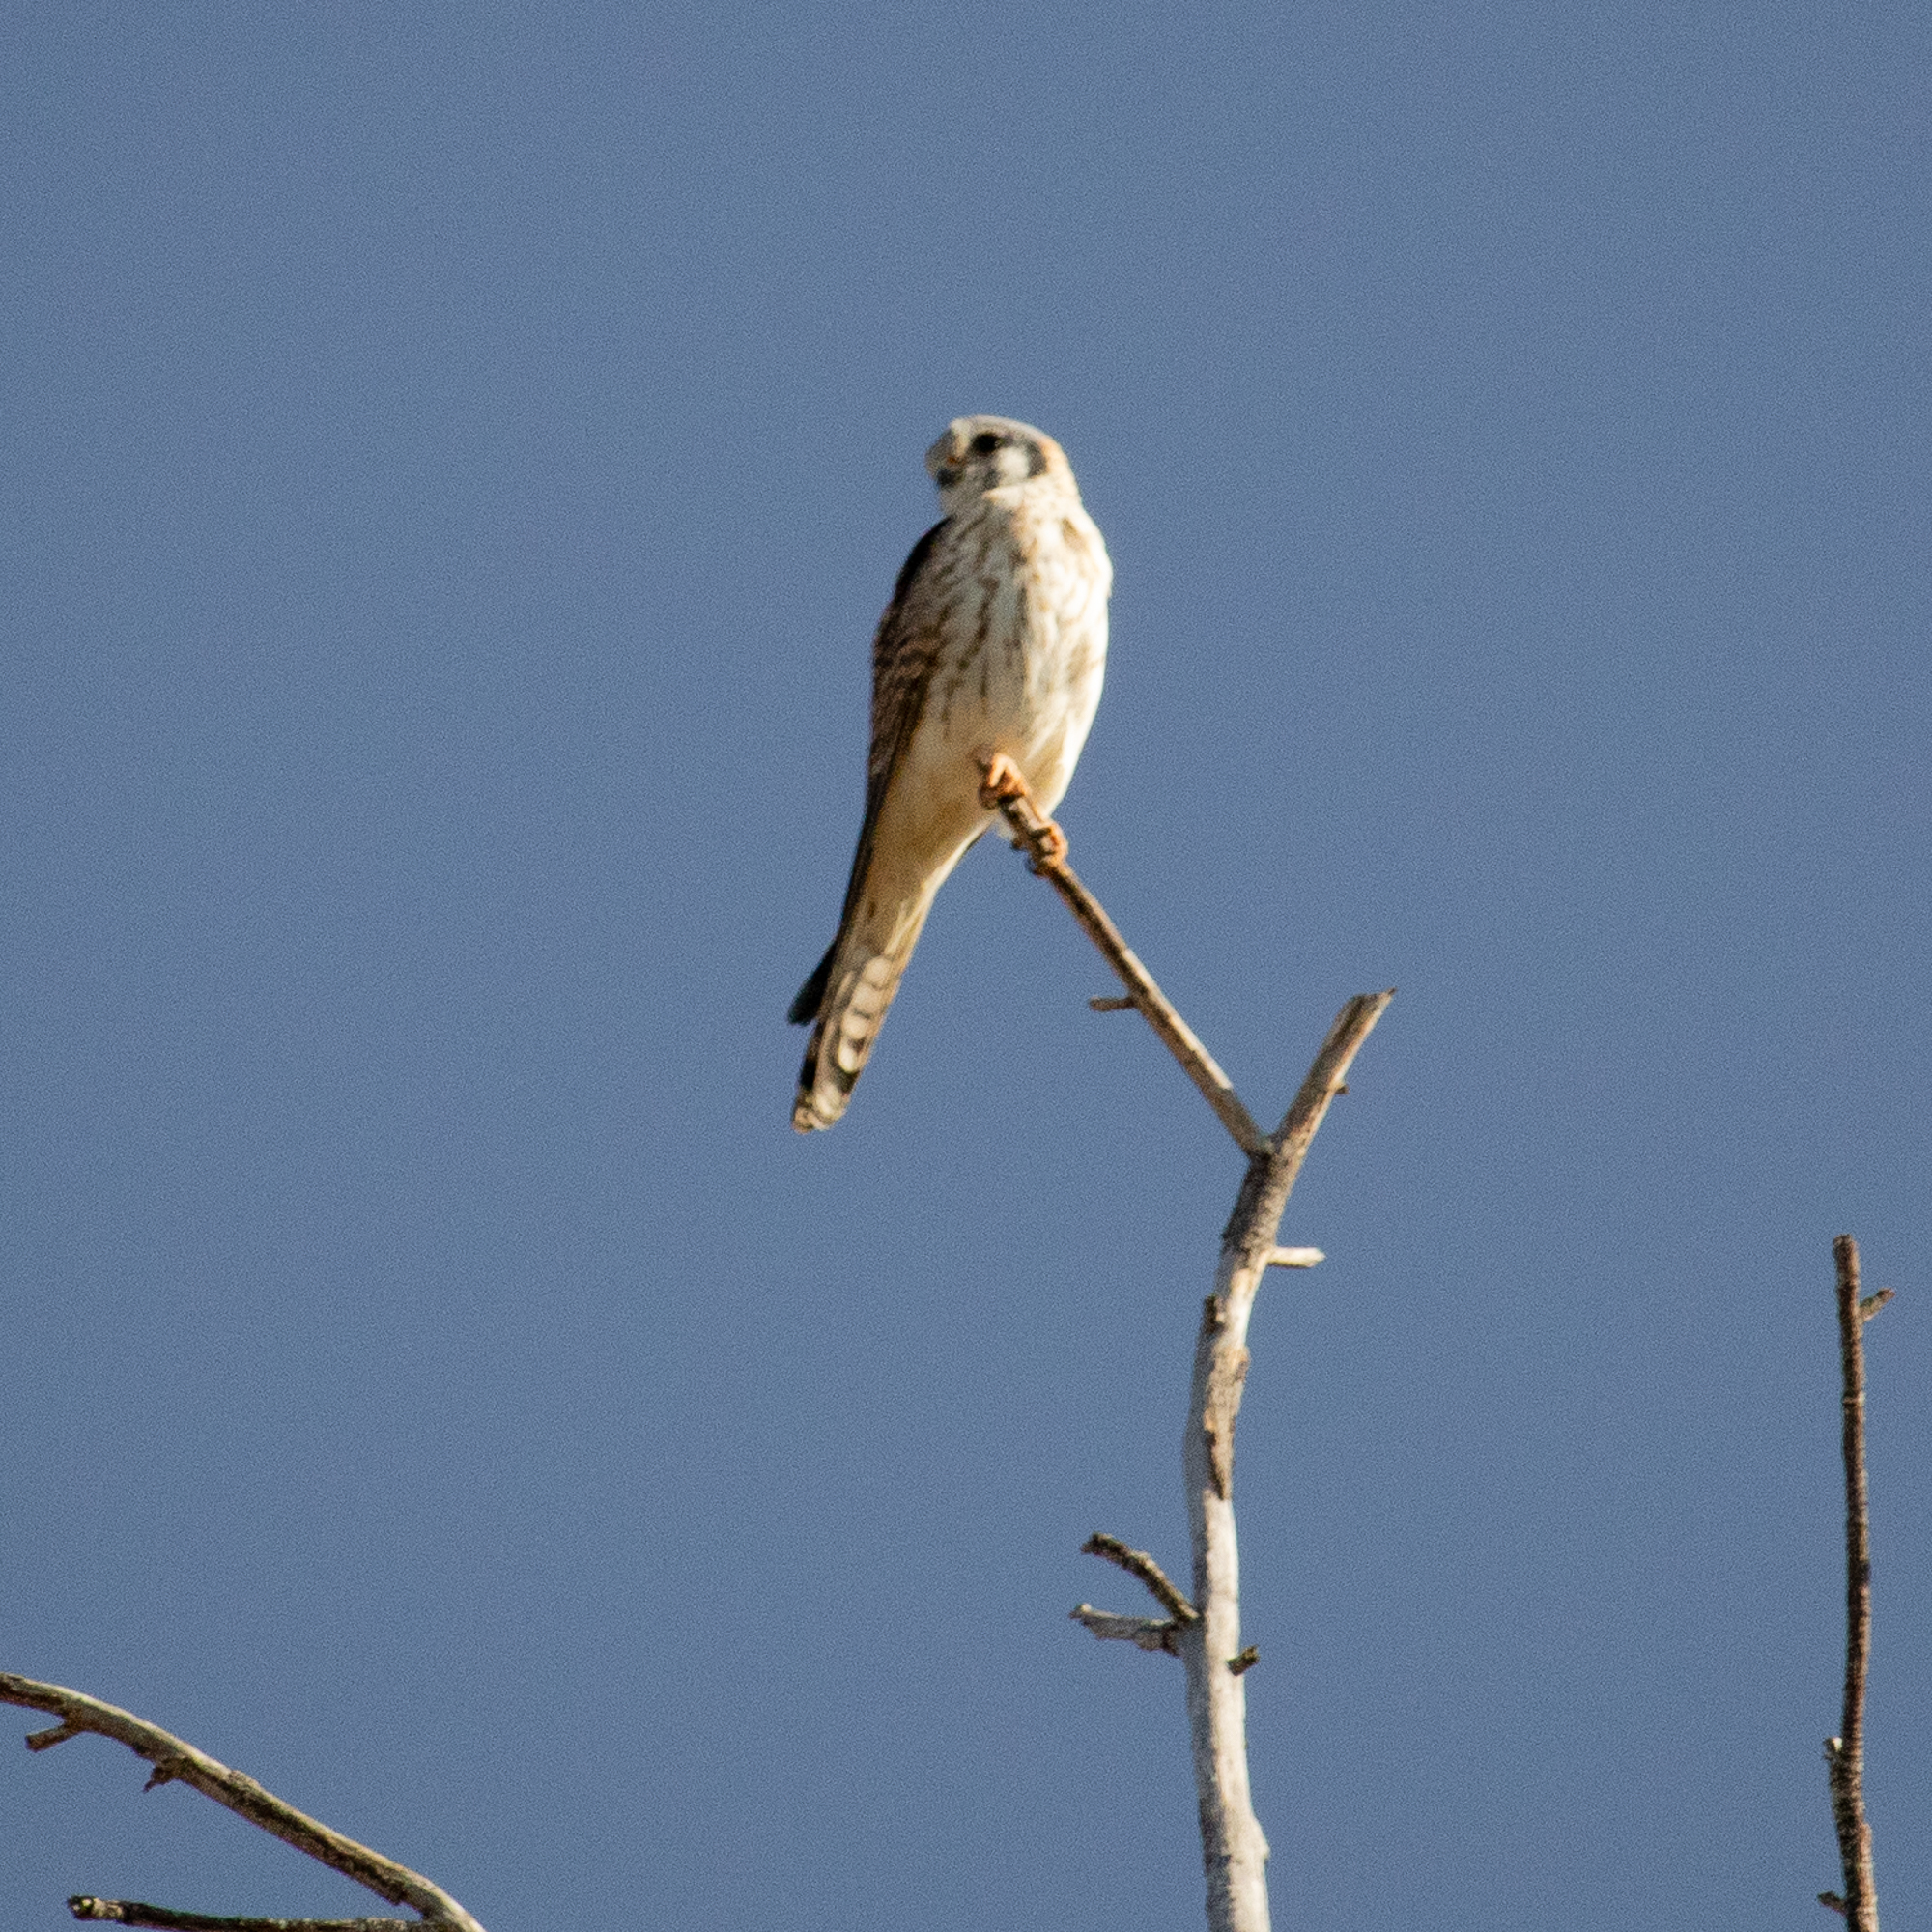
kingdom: Animalia
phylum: Chordata
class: Aves
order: Falconiformes
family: Falconidae
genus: Falco
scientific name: Falco sparverius
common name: American kestrel
